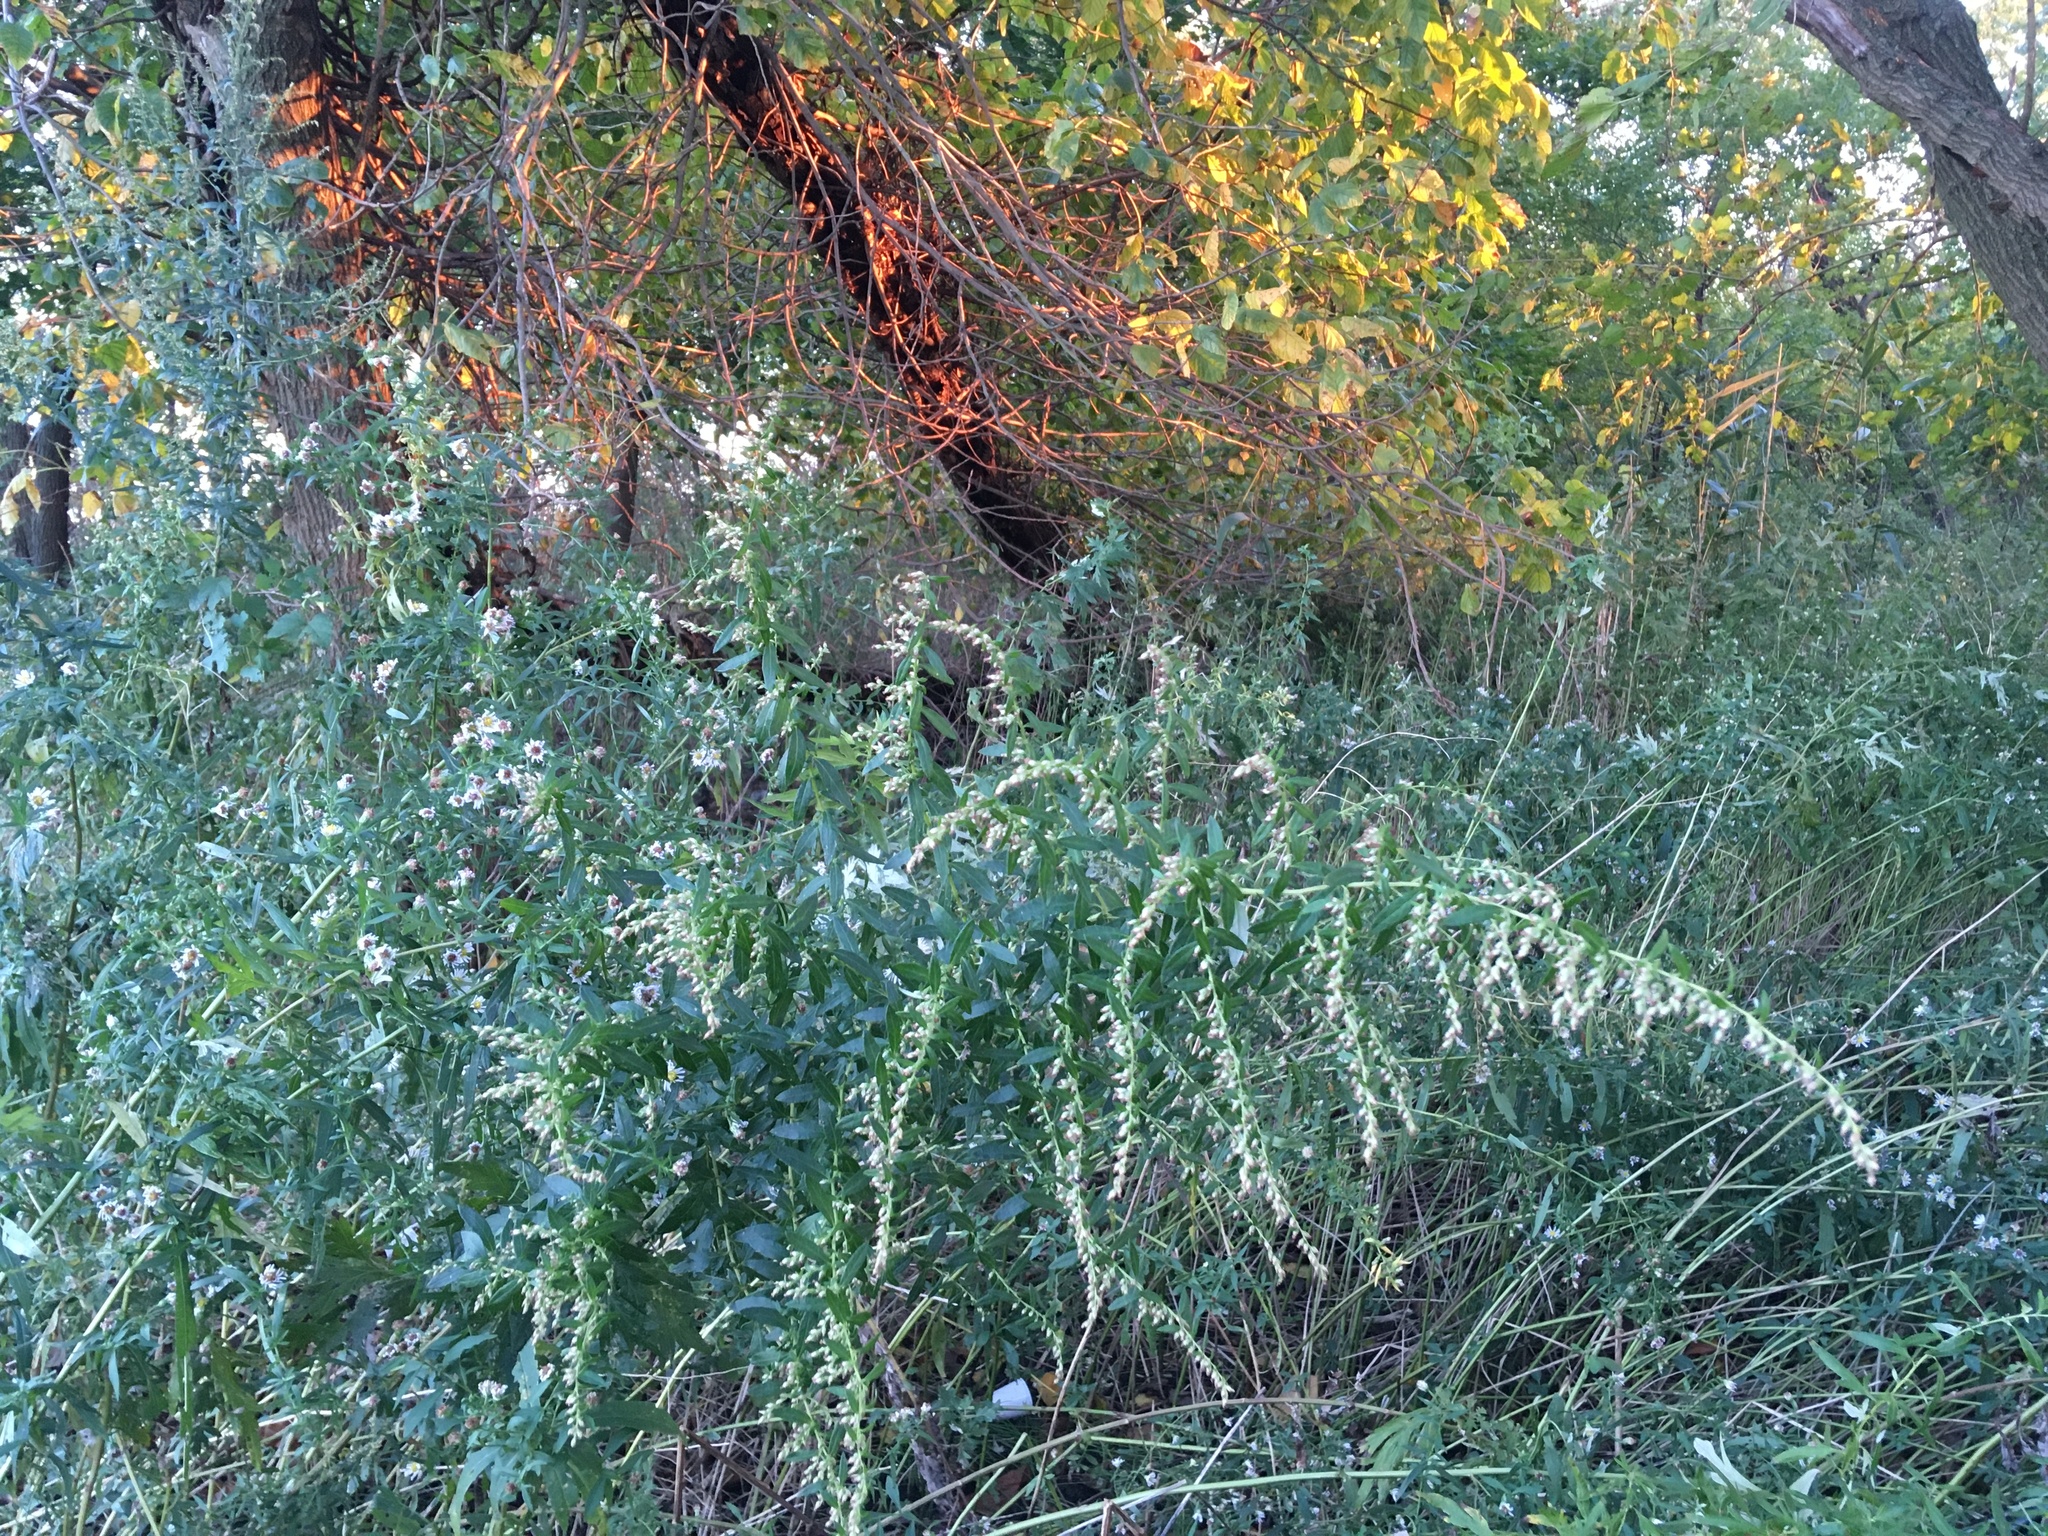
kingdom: Plantae
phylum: Tracheophyta
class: Magnoliopsida
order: Asterales
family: Asteraceae
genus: Artemisia
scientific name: Artemisia vulgaris
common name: Mugwort
